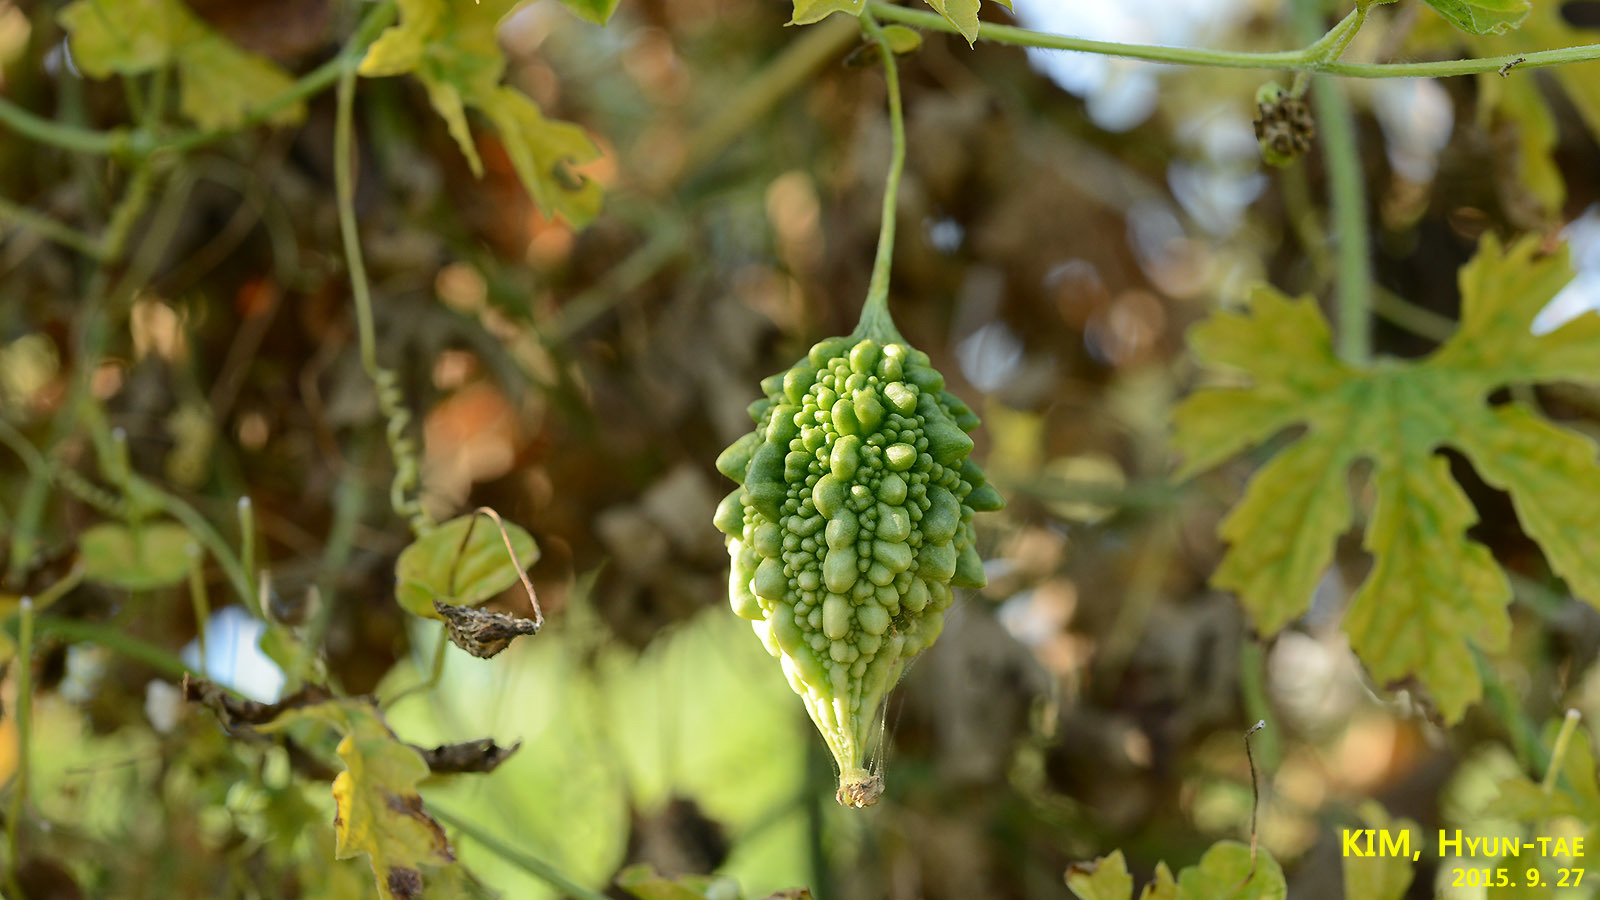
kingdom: Plantae
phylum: Tracheophyta
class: Magnoliopsida
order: Cucurbitales
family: Cucurbitaceae
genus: Momordica
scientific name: Momordica charantia
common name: Balsampear
